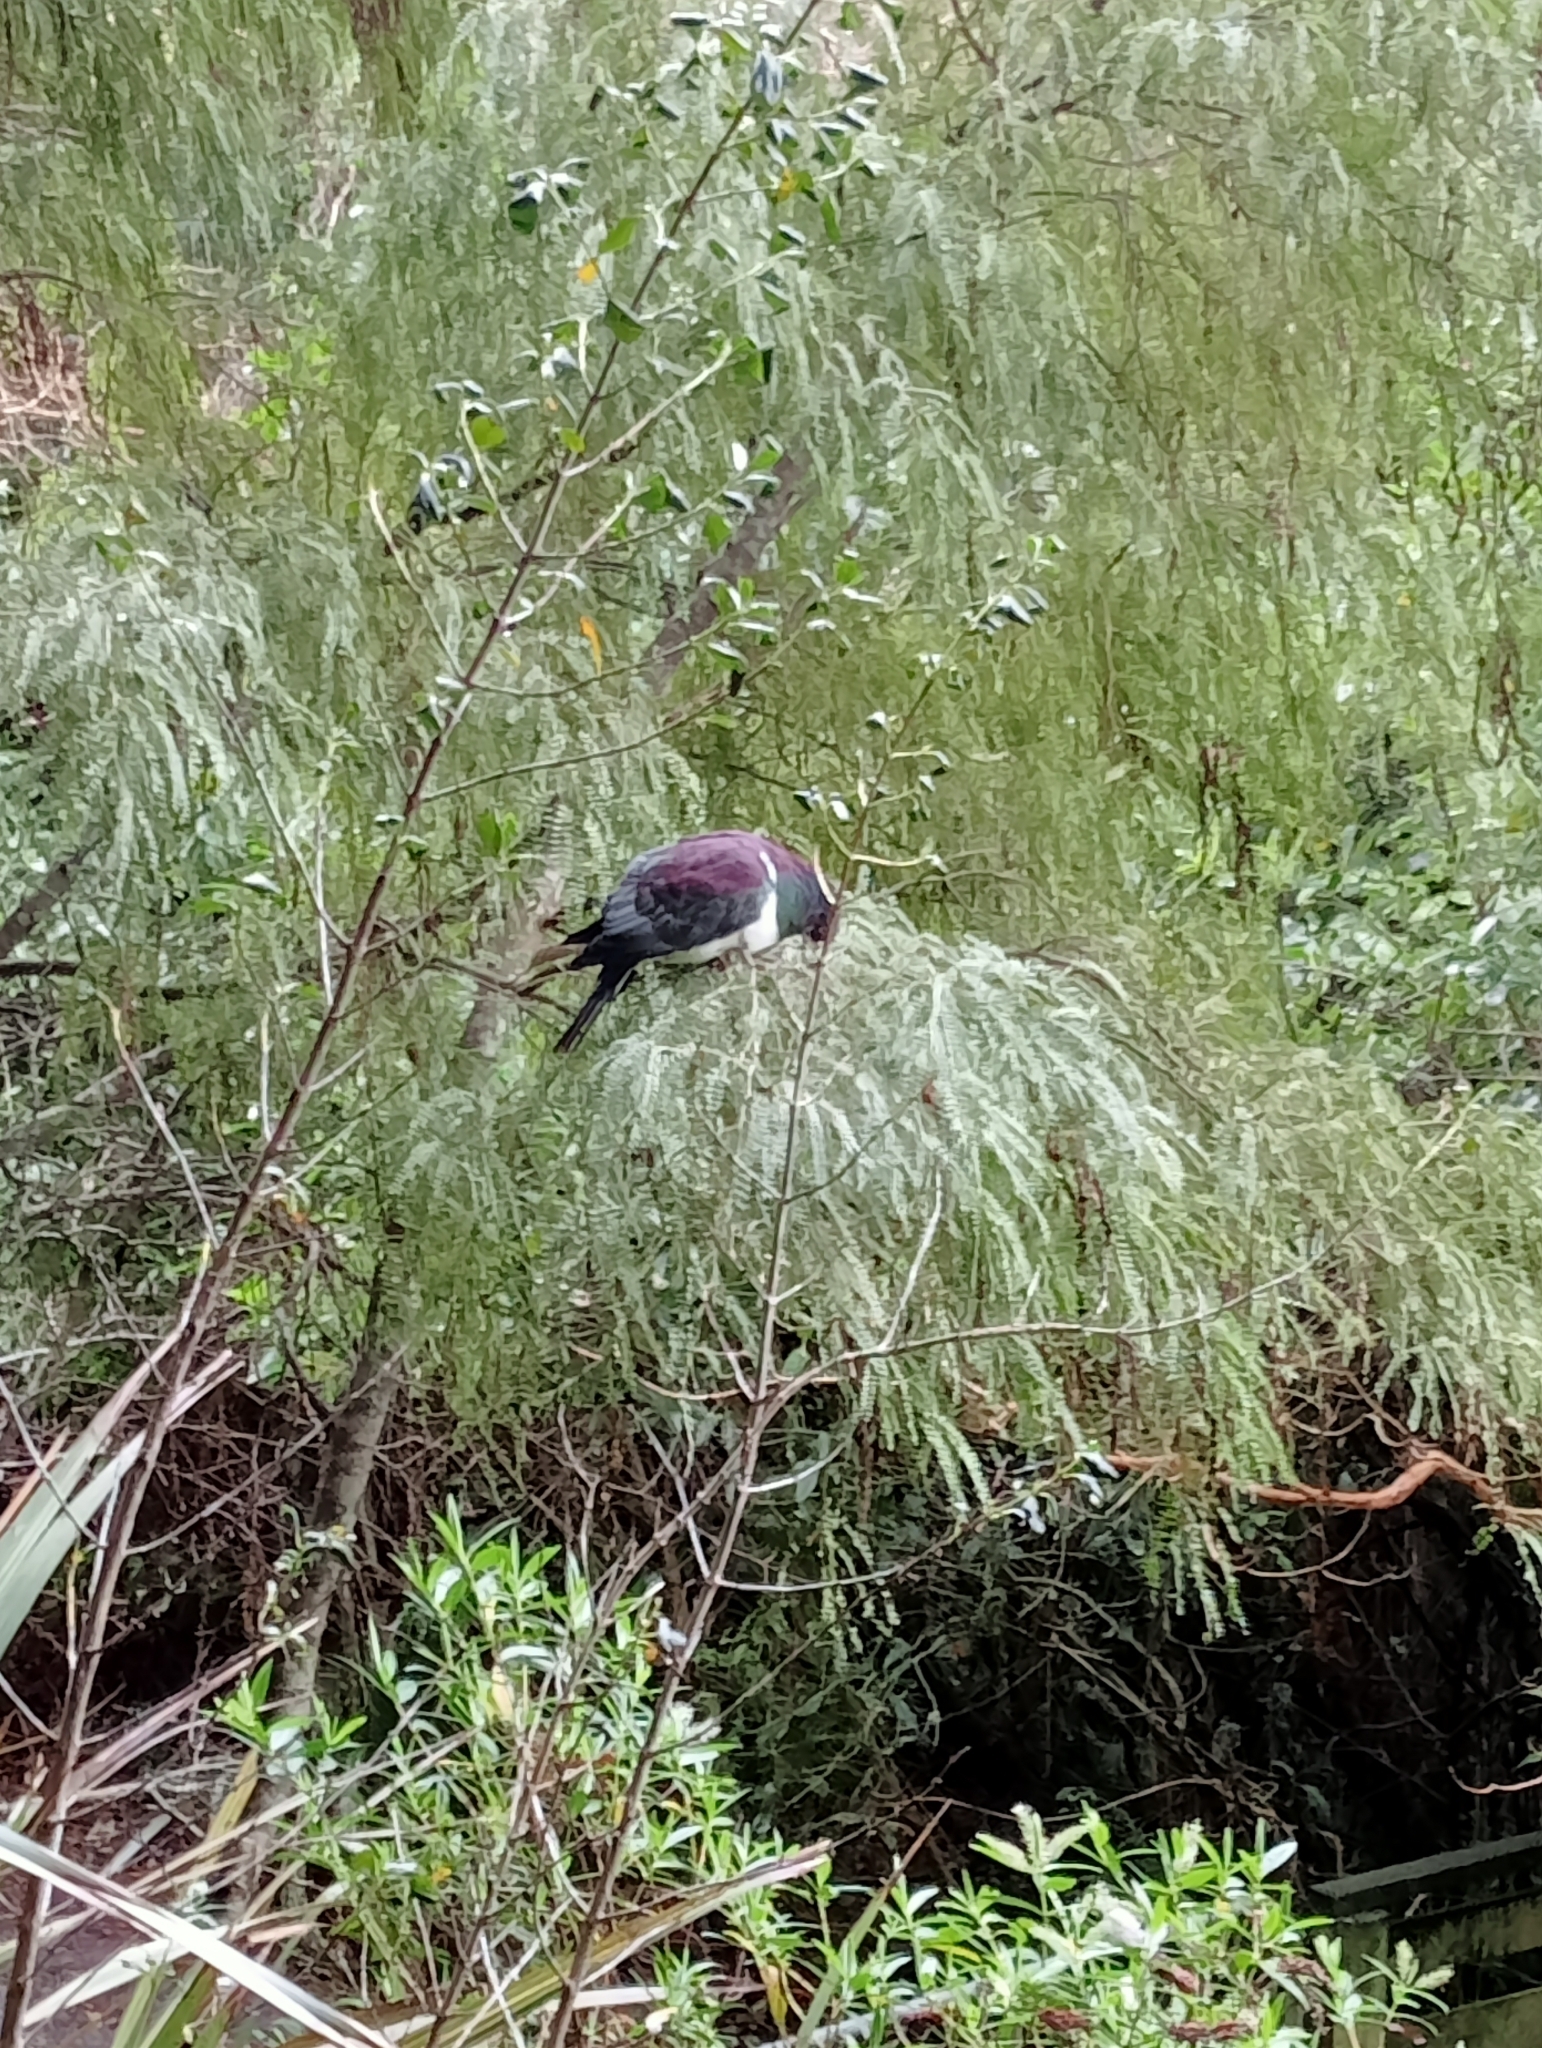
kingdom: Animalia
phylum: Chordata
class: Aves
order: Columbiformes
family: Columbidae
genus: Hemiphaga
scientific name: Hemiphaga novaeseelandiae
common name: New zealand pigeon
